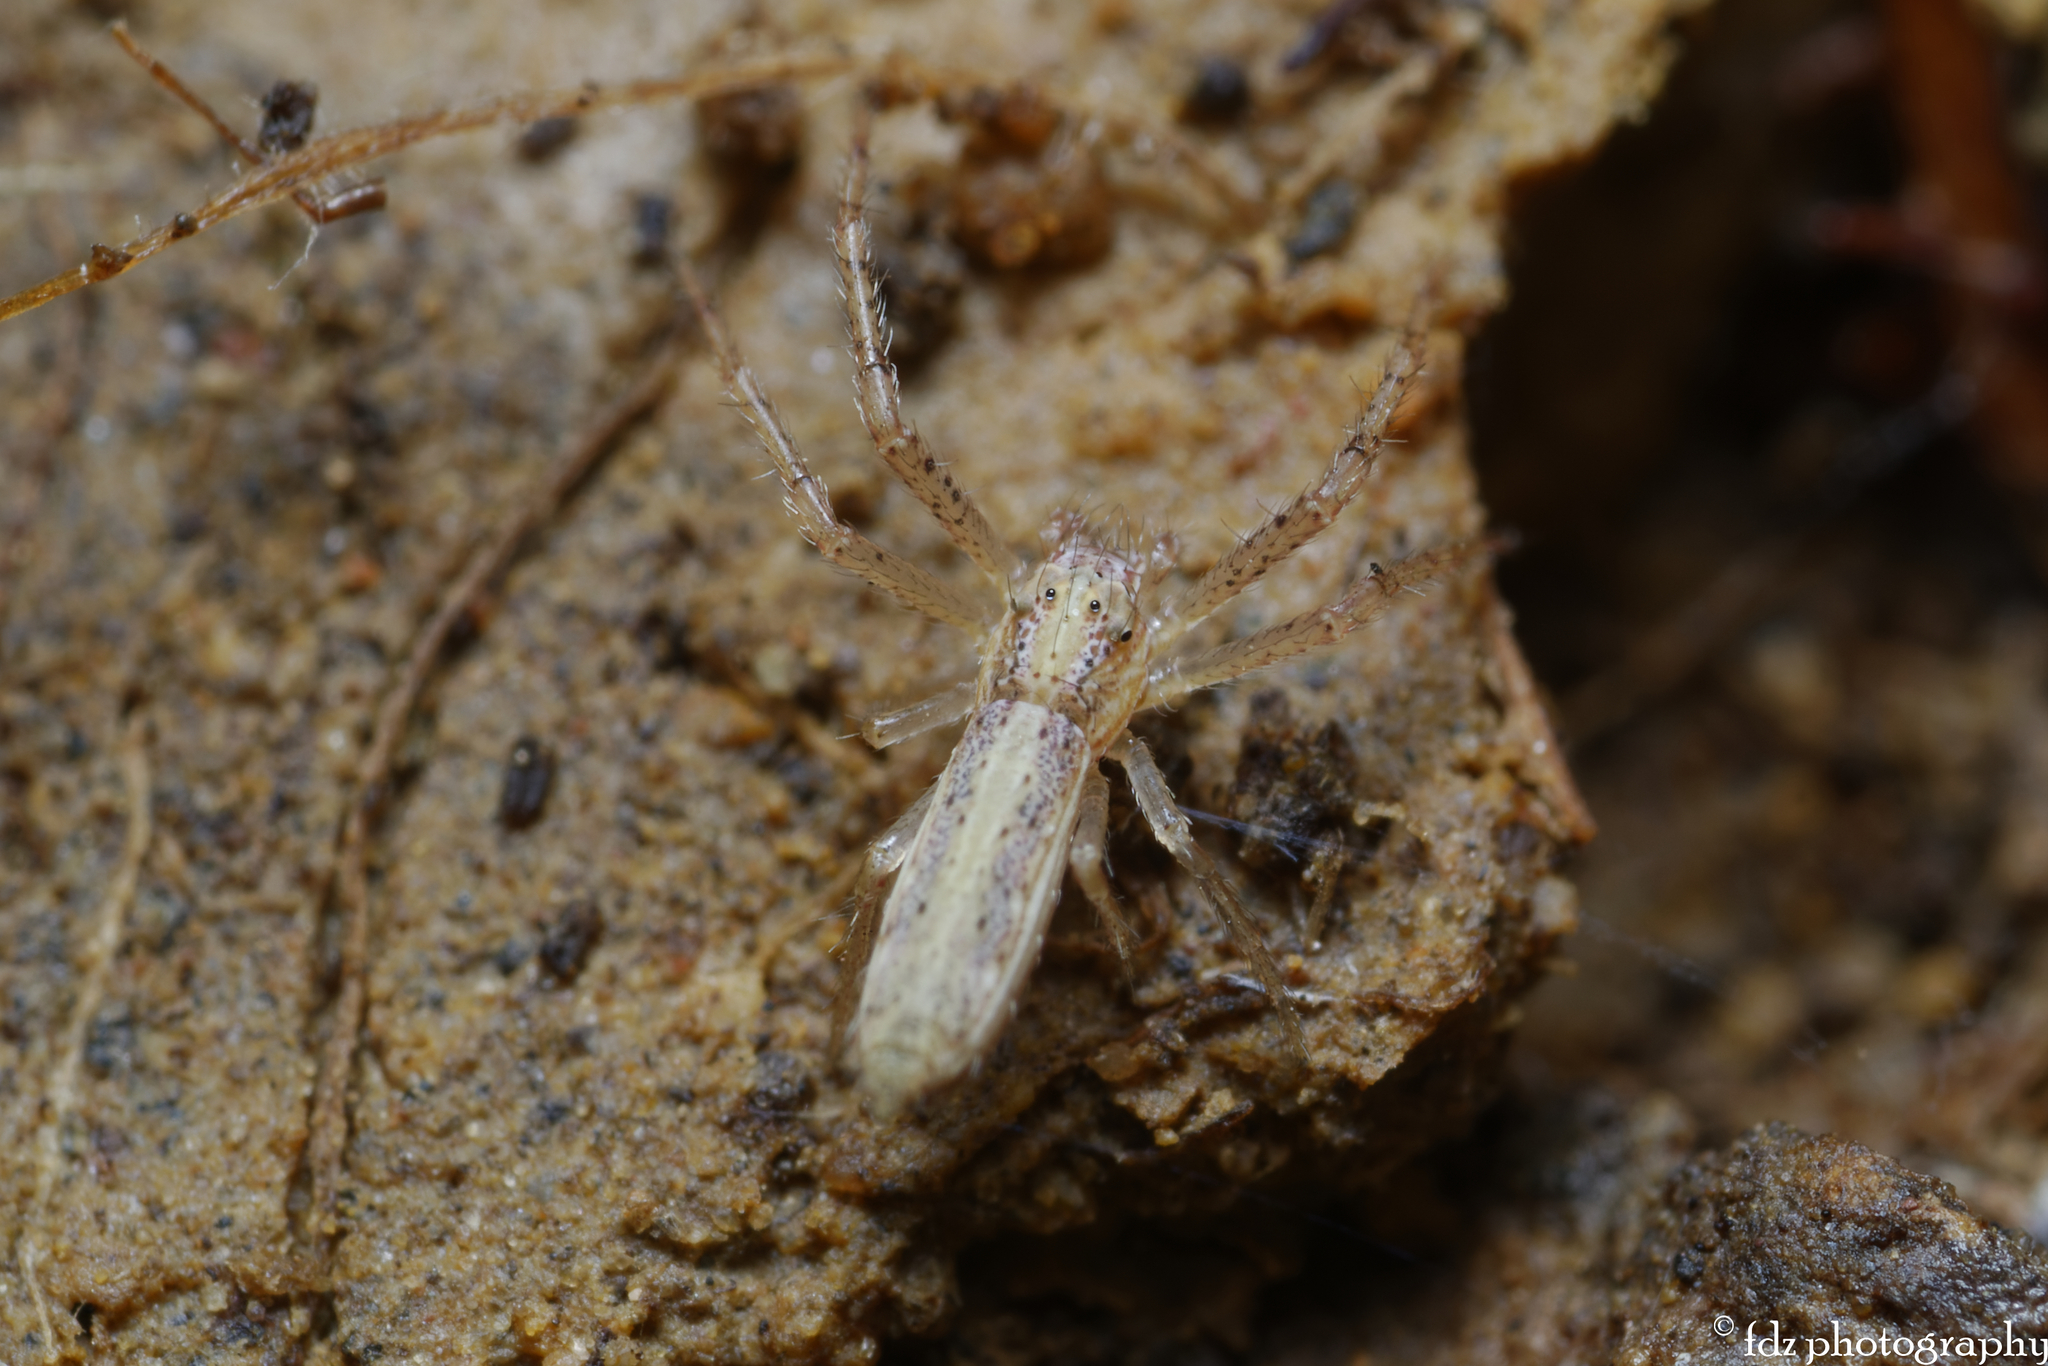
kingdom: Animalia
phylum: Arthropoda
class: Arachnida
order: Araneae
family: Thomisidae
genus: Monaeses
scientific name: Monaeses paradoxus
